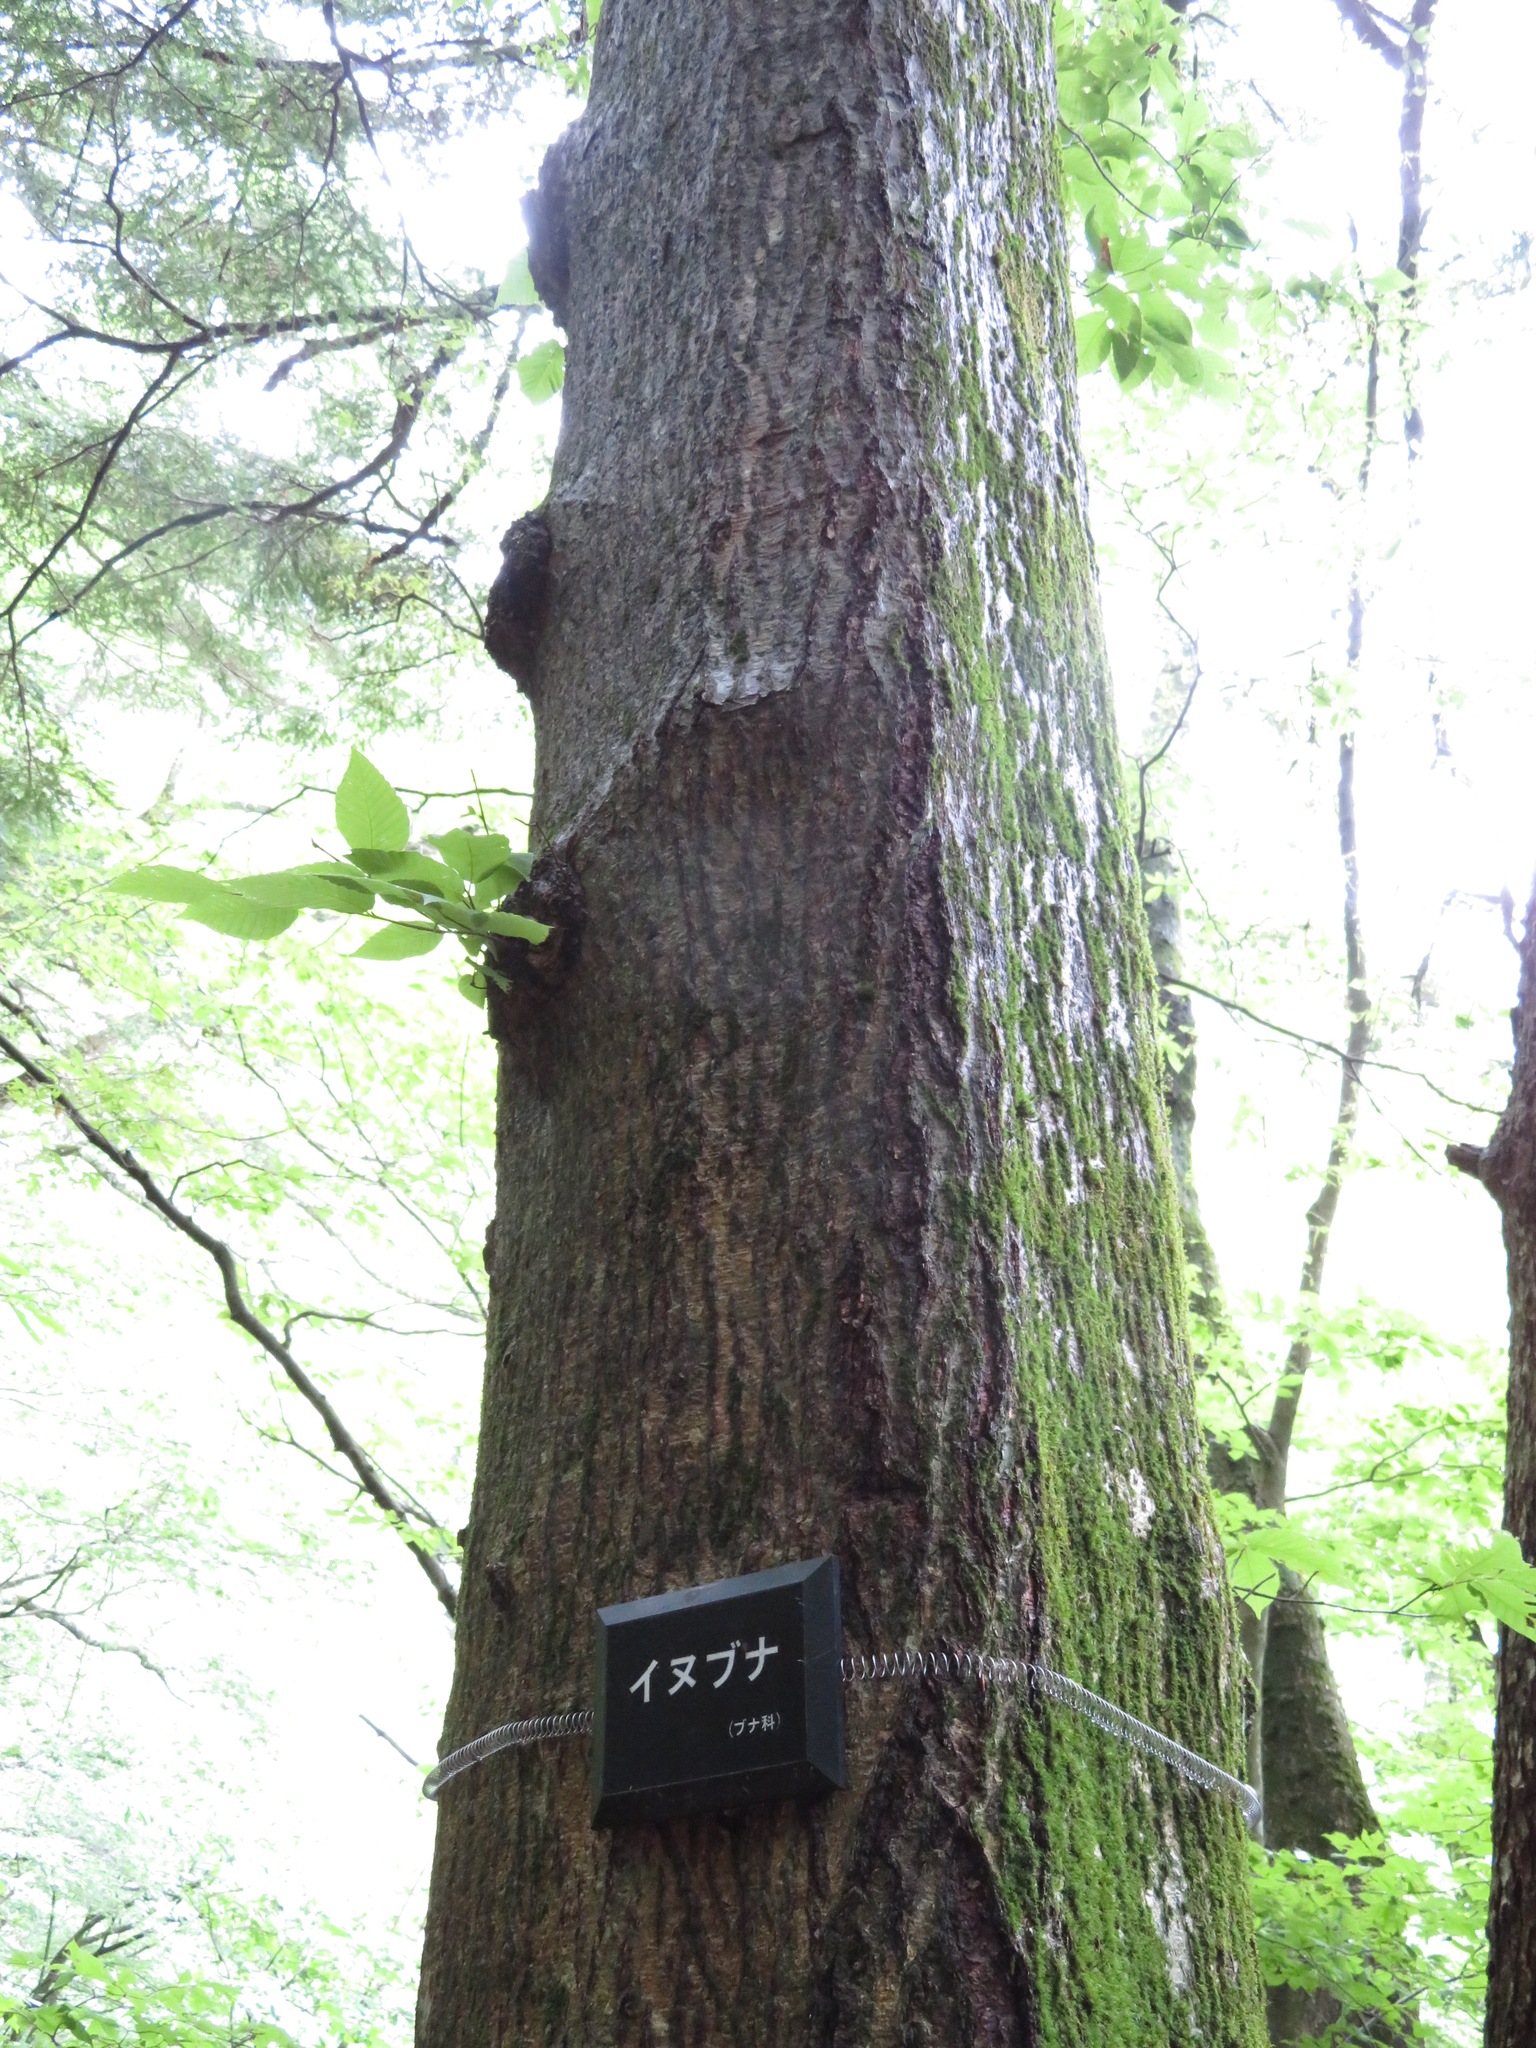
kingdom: Plantae
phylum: Tracheophyta
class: Magnoliopsida
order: Fagales
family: Fagaceae
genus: Fagus
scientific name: Fagus japonica
